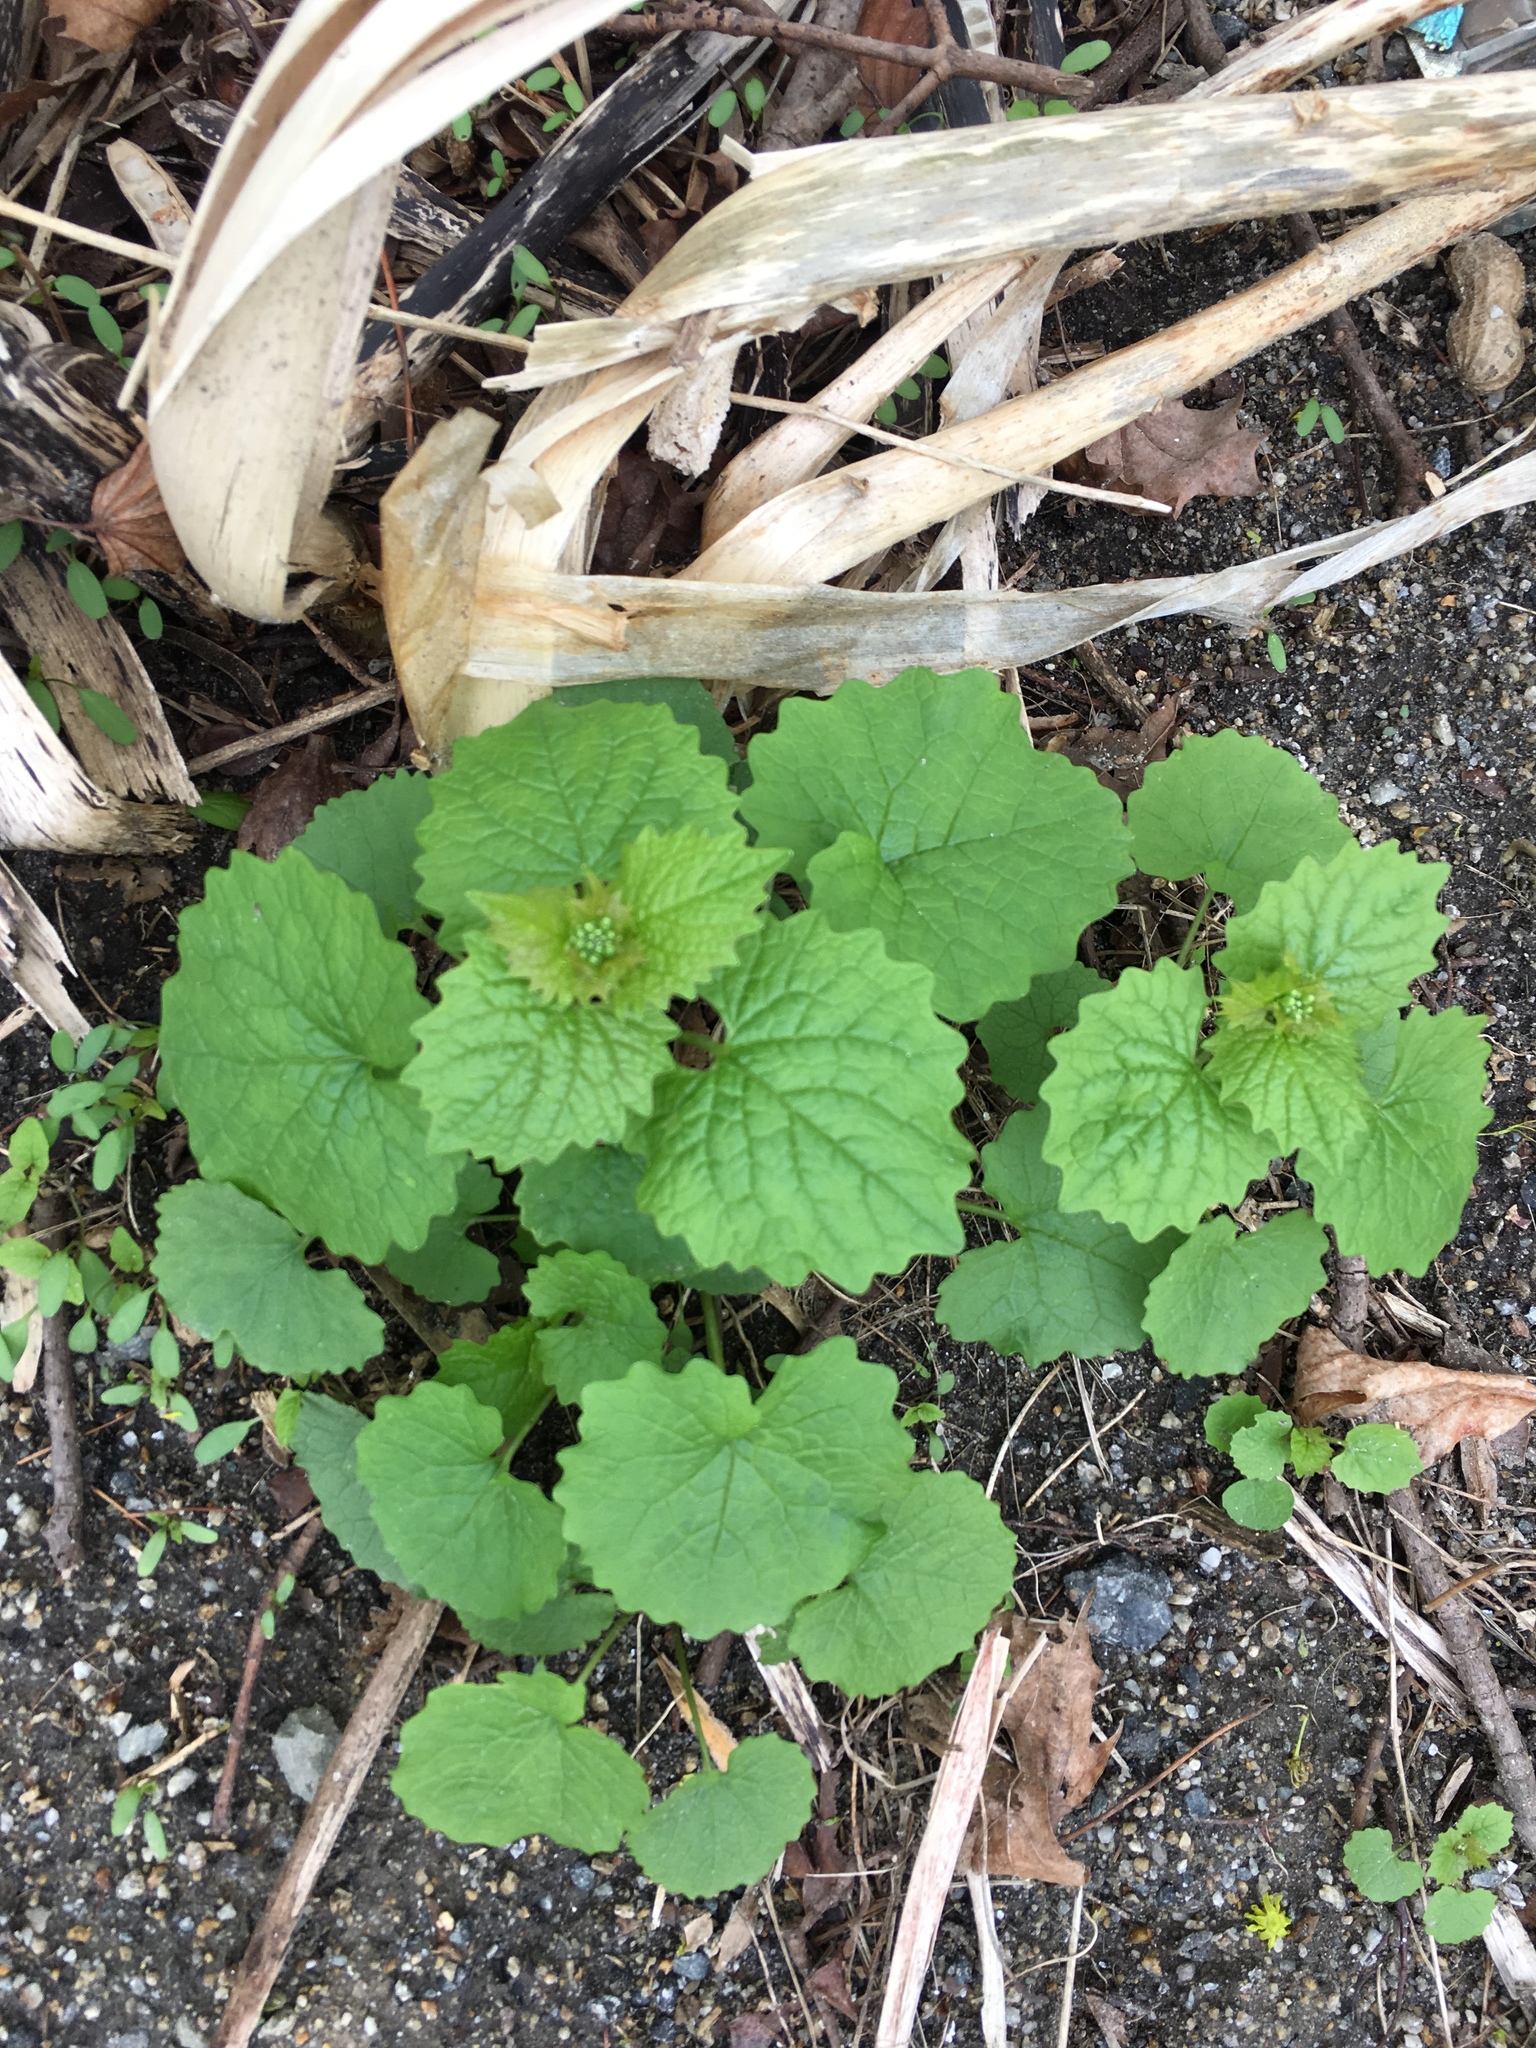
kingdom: Plantae
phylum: Tracheophyta
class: Magnoliopsida
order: Brassicales
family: Brassicaceae
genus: Alliaria
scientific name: Alliaria petiolata
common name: Garlic mustard
